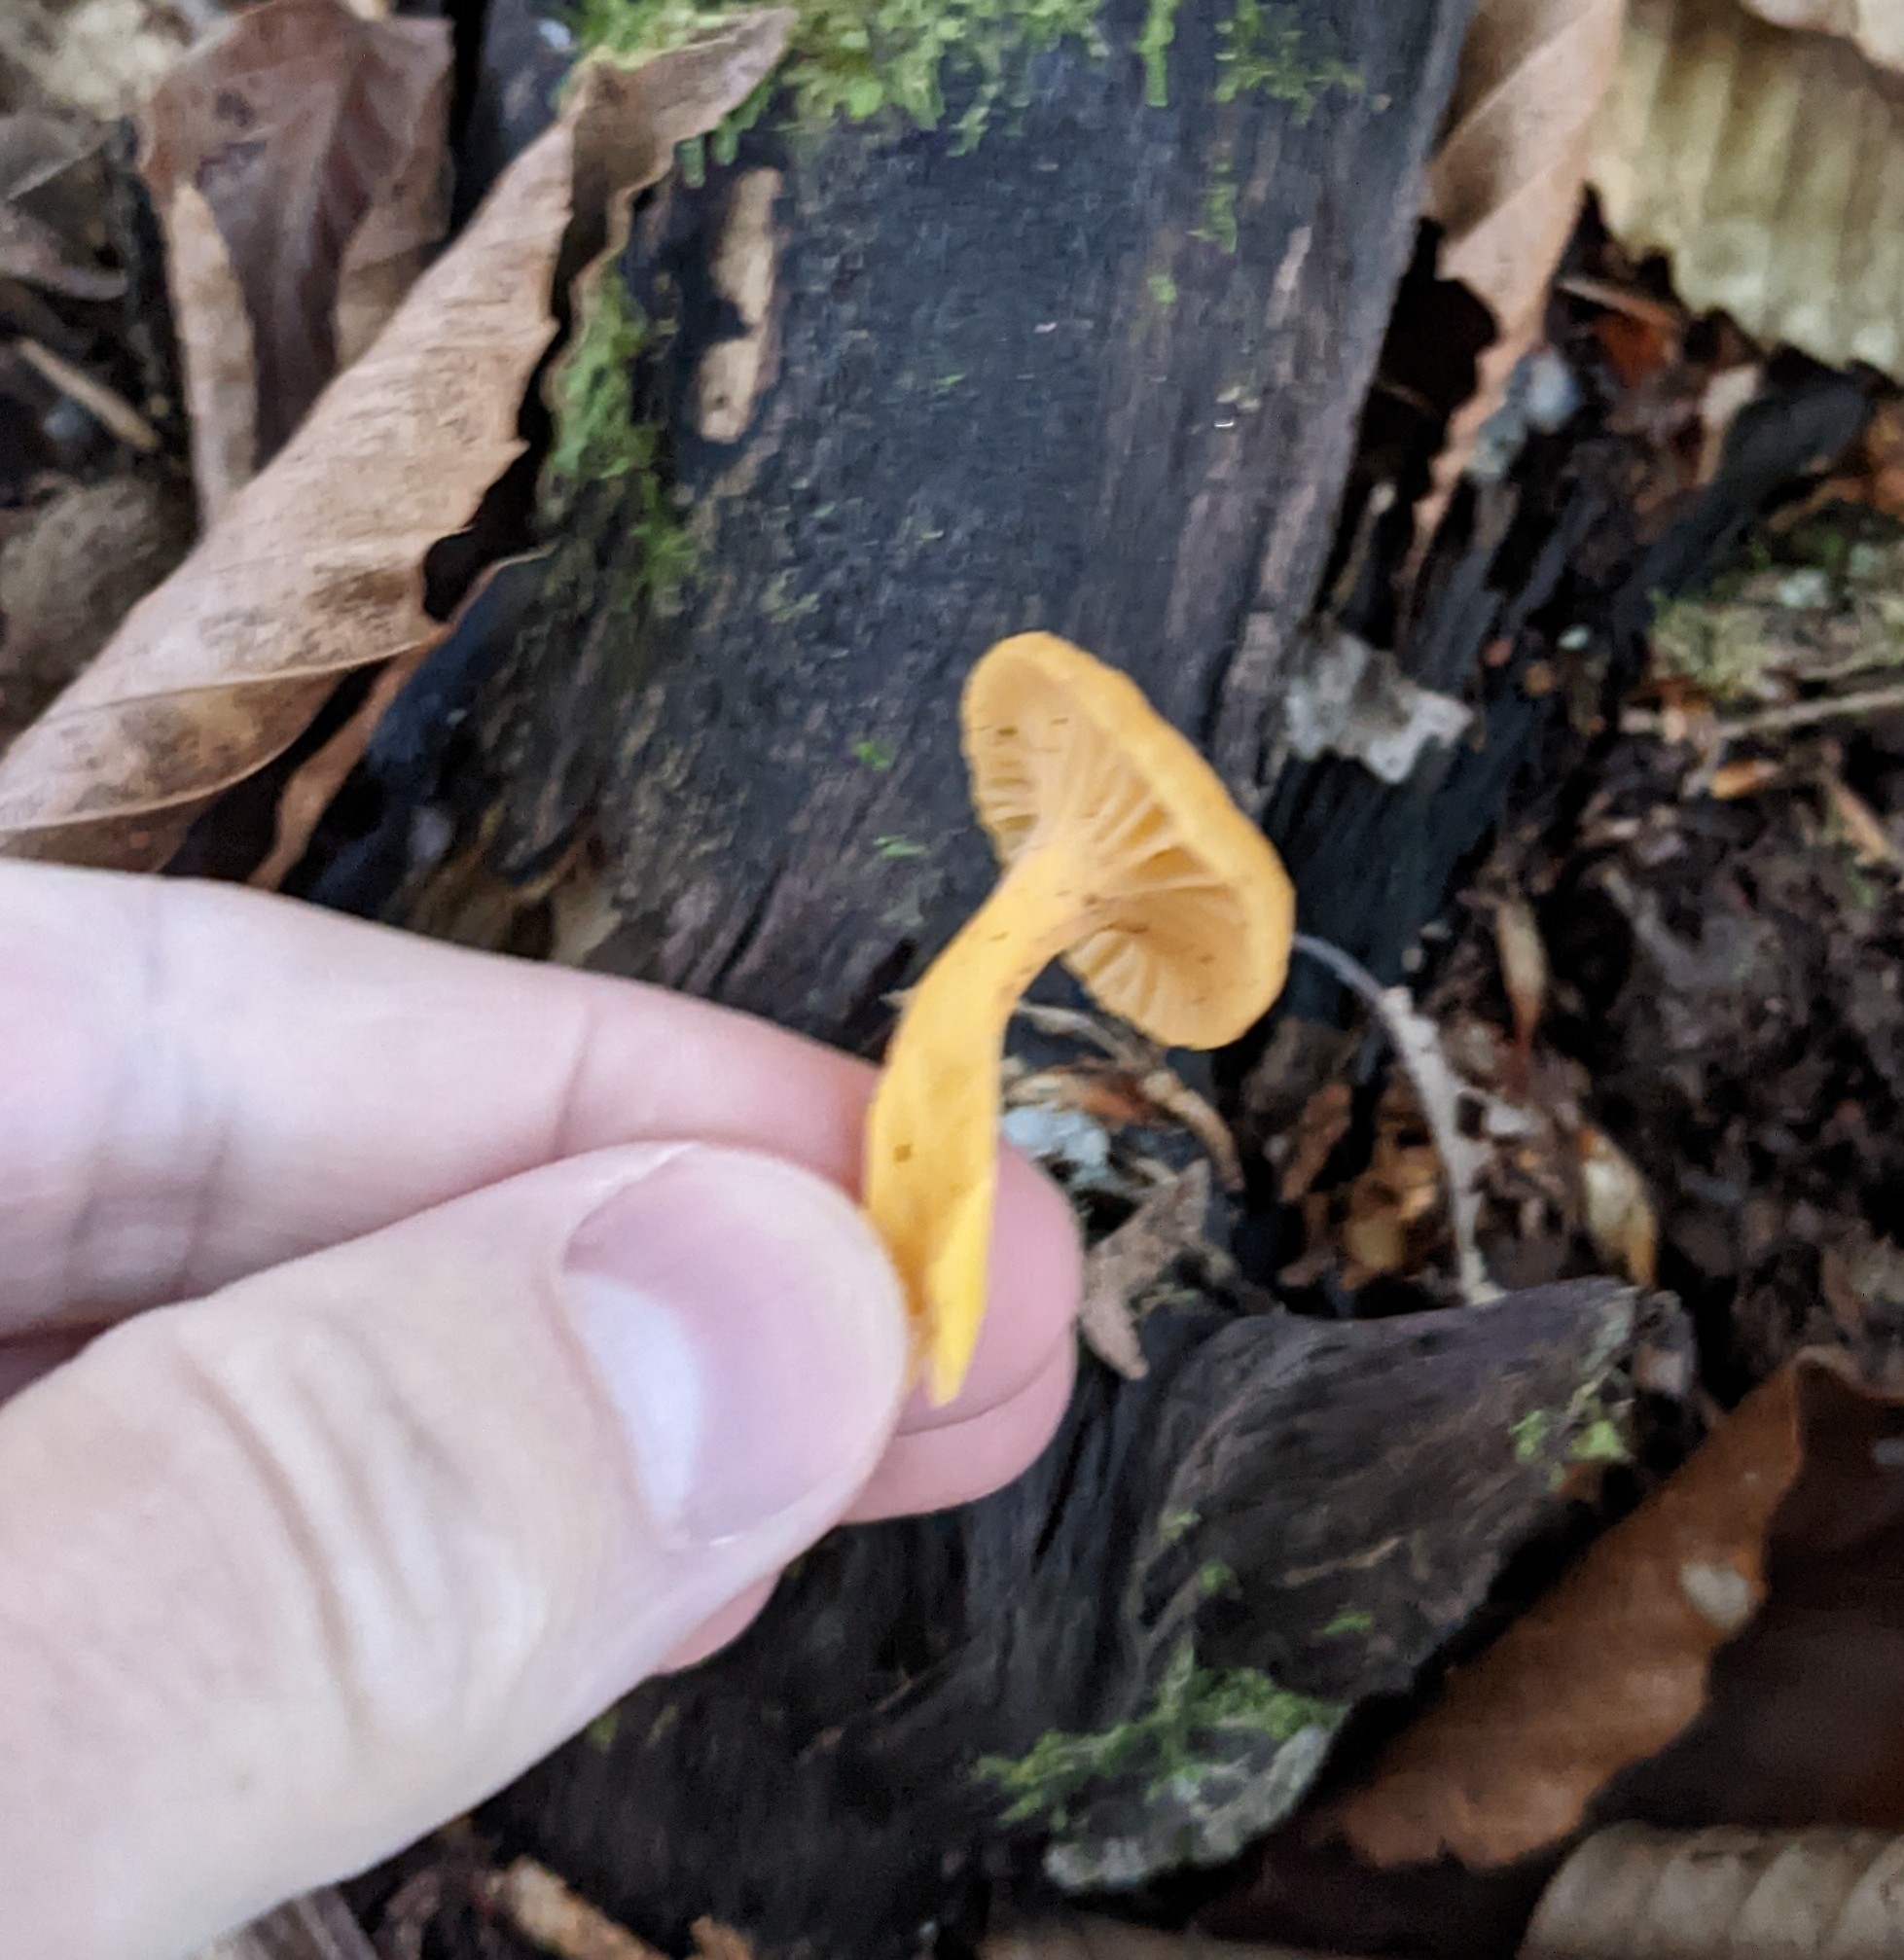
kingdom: Fungi
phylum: Basidiomycota
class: Agaricomycetes
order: Cantharellales
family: Hydnaceae
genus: Craterellus
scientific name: Craterellus tubaeformis
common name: Yellowfoot
